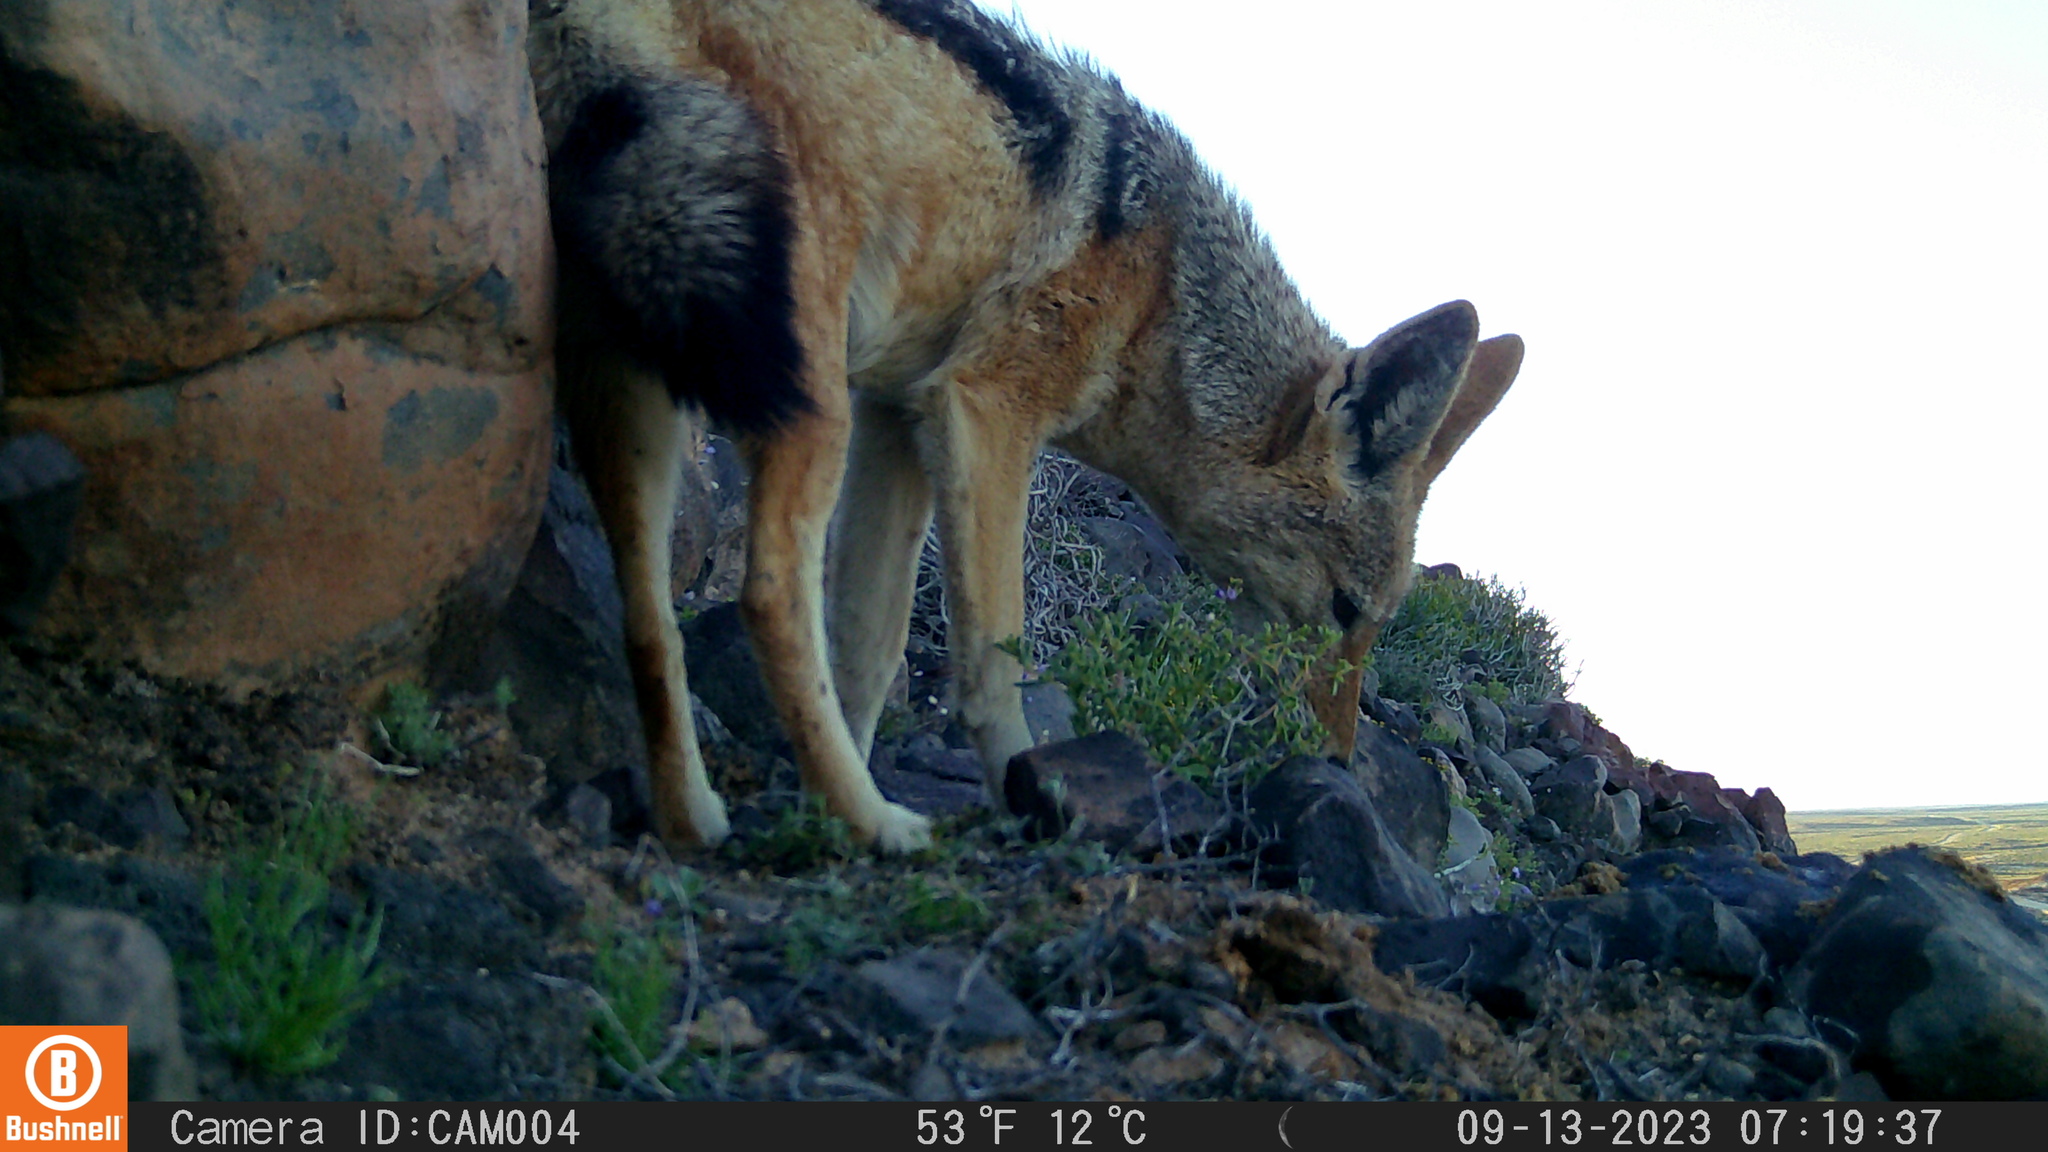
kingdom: Animalia
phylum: Chordata
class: Mammalia
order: Carnivora
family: Canidae
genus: Lupulella
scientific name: Lupulella
